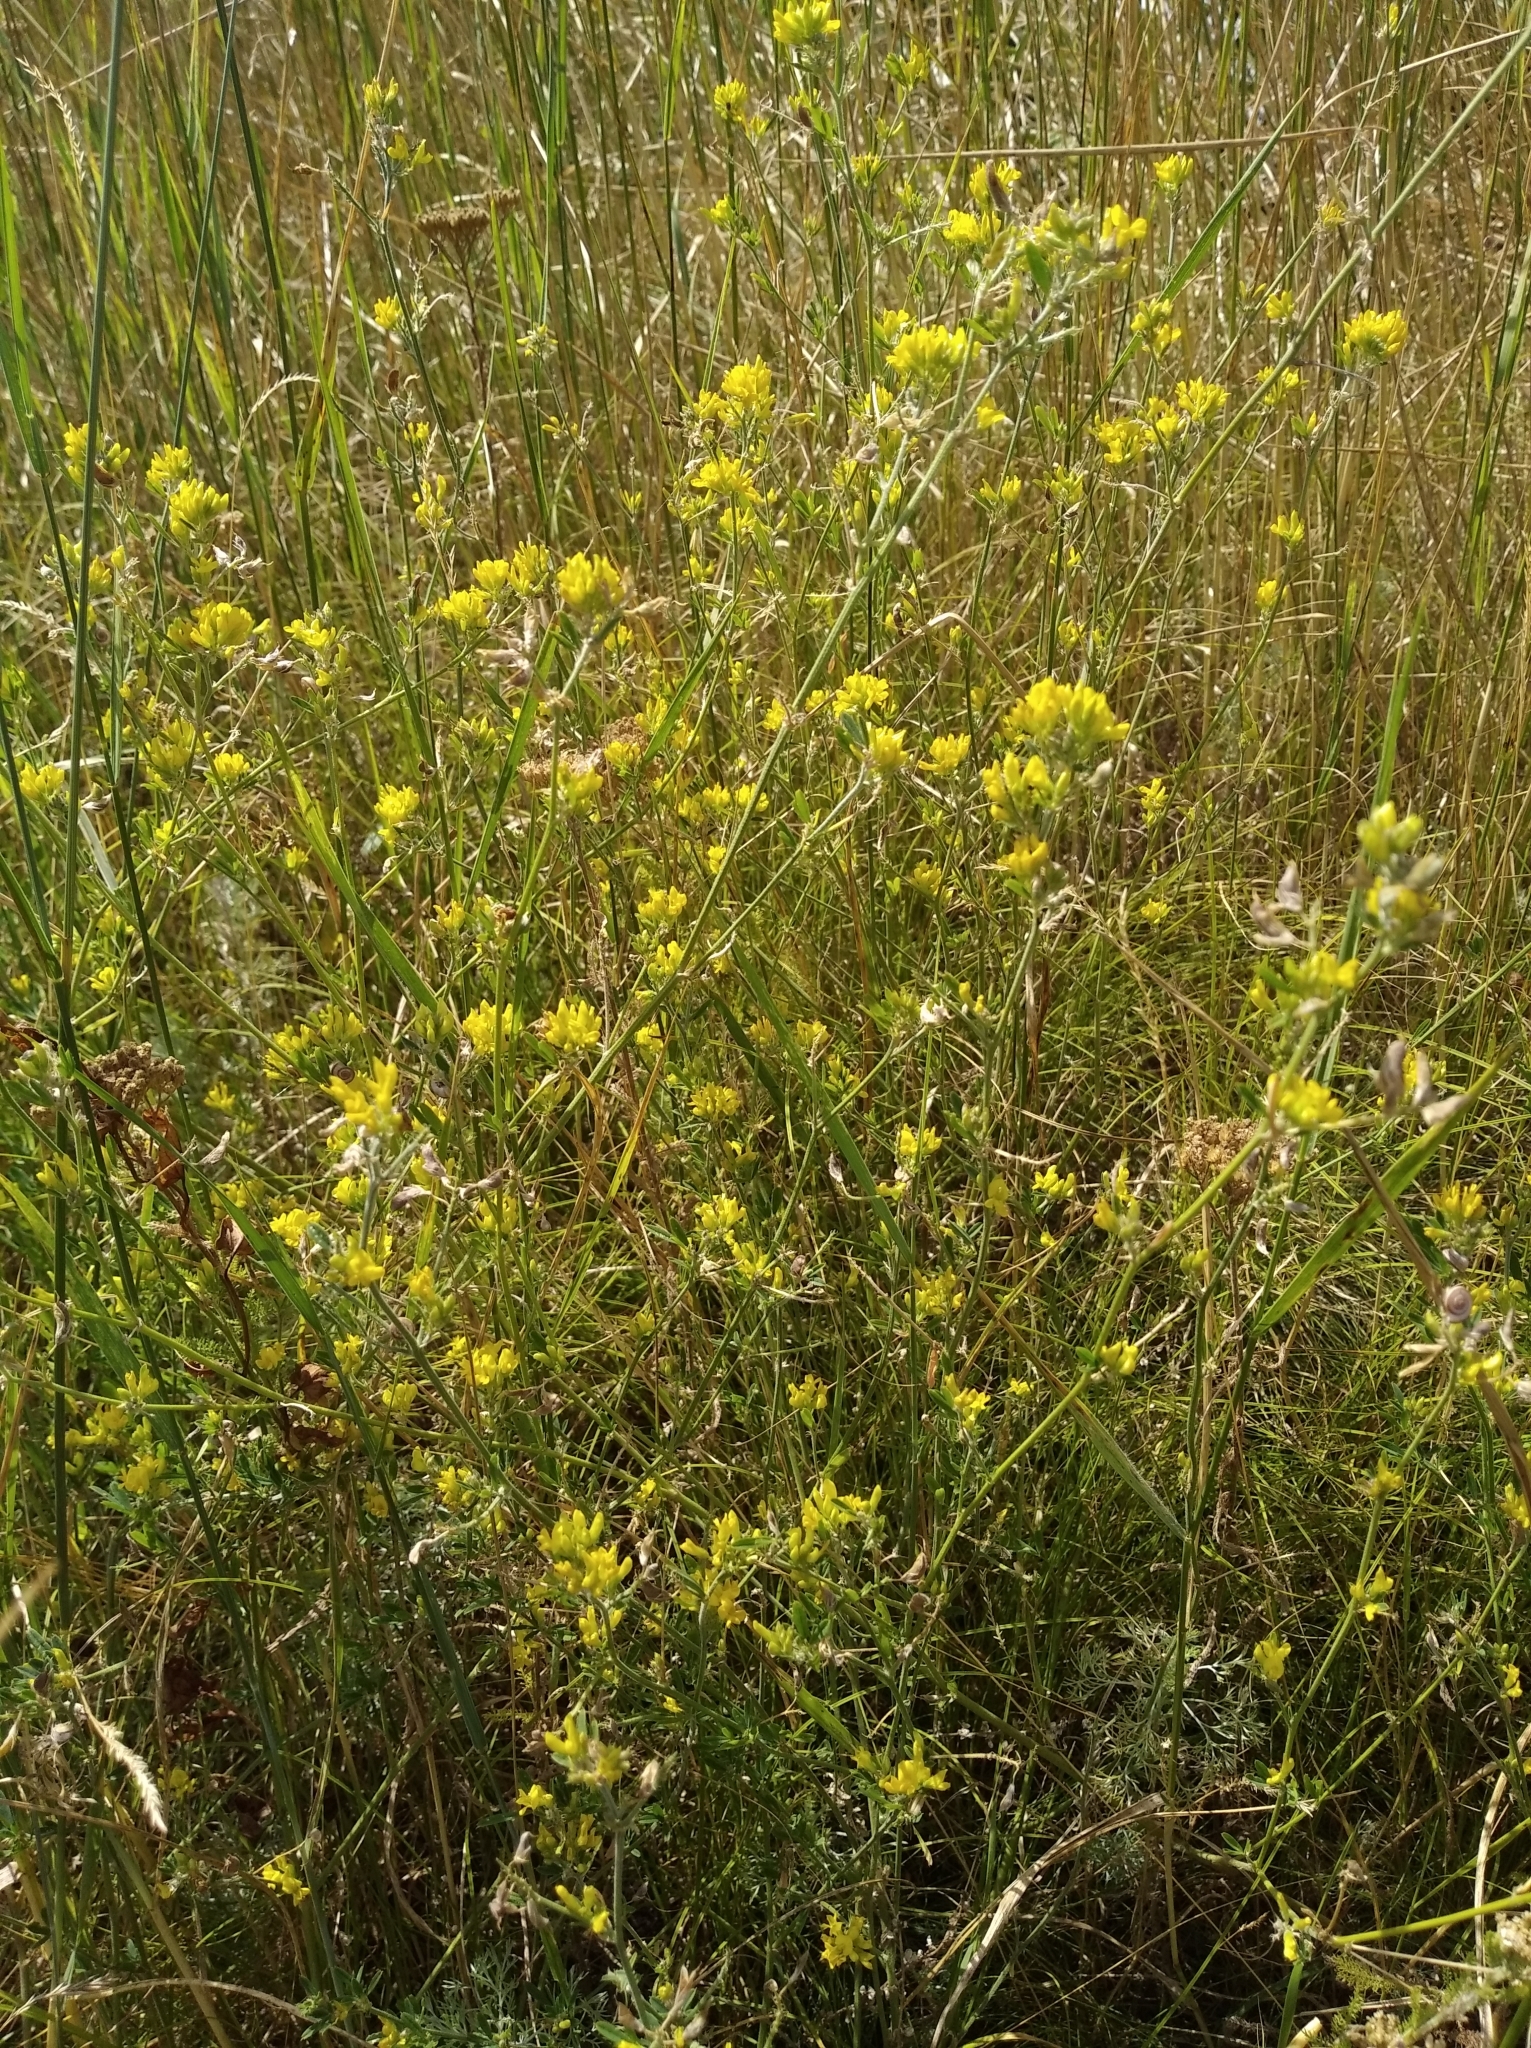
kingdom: Plantae
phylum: Tracheophyta
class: Magnoliopsida
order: Fabales
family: Fabaceae
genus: Medicago
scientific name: Medicago falcata
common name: Sickle medick
